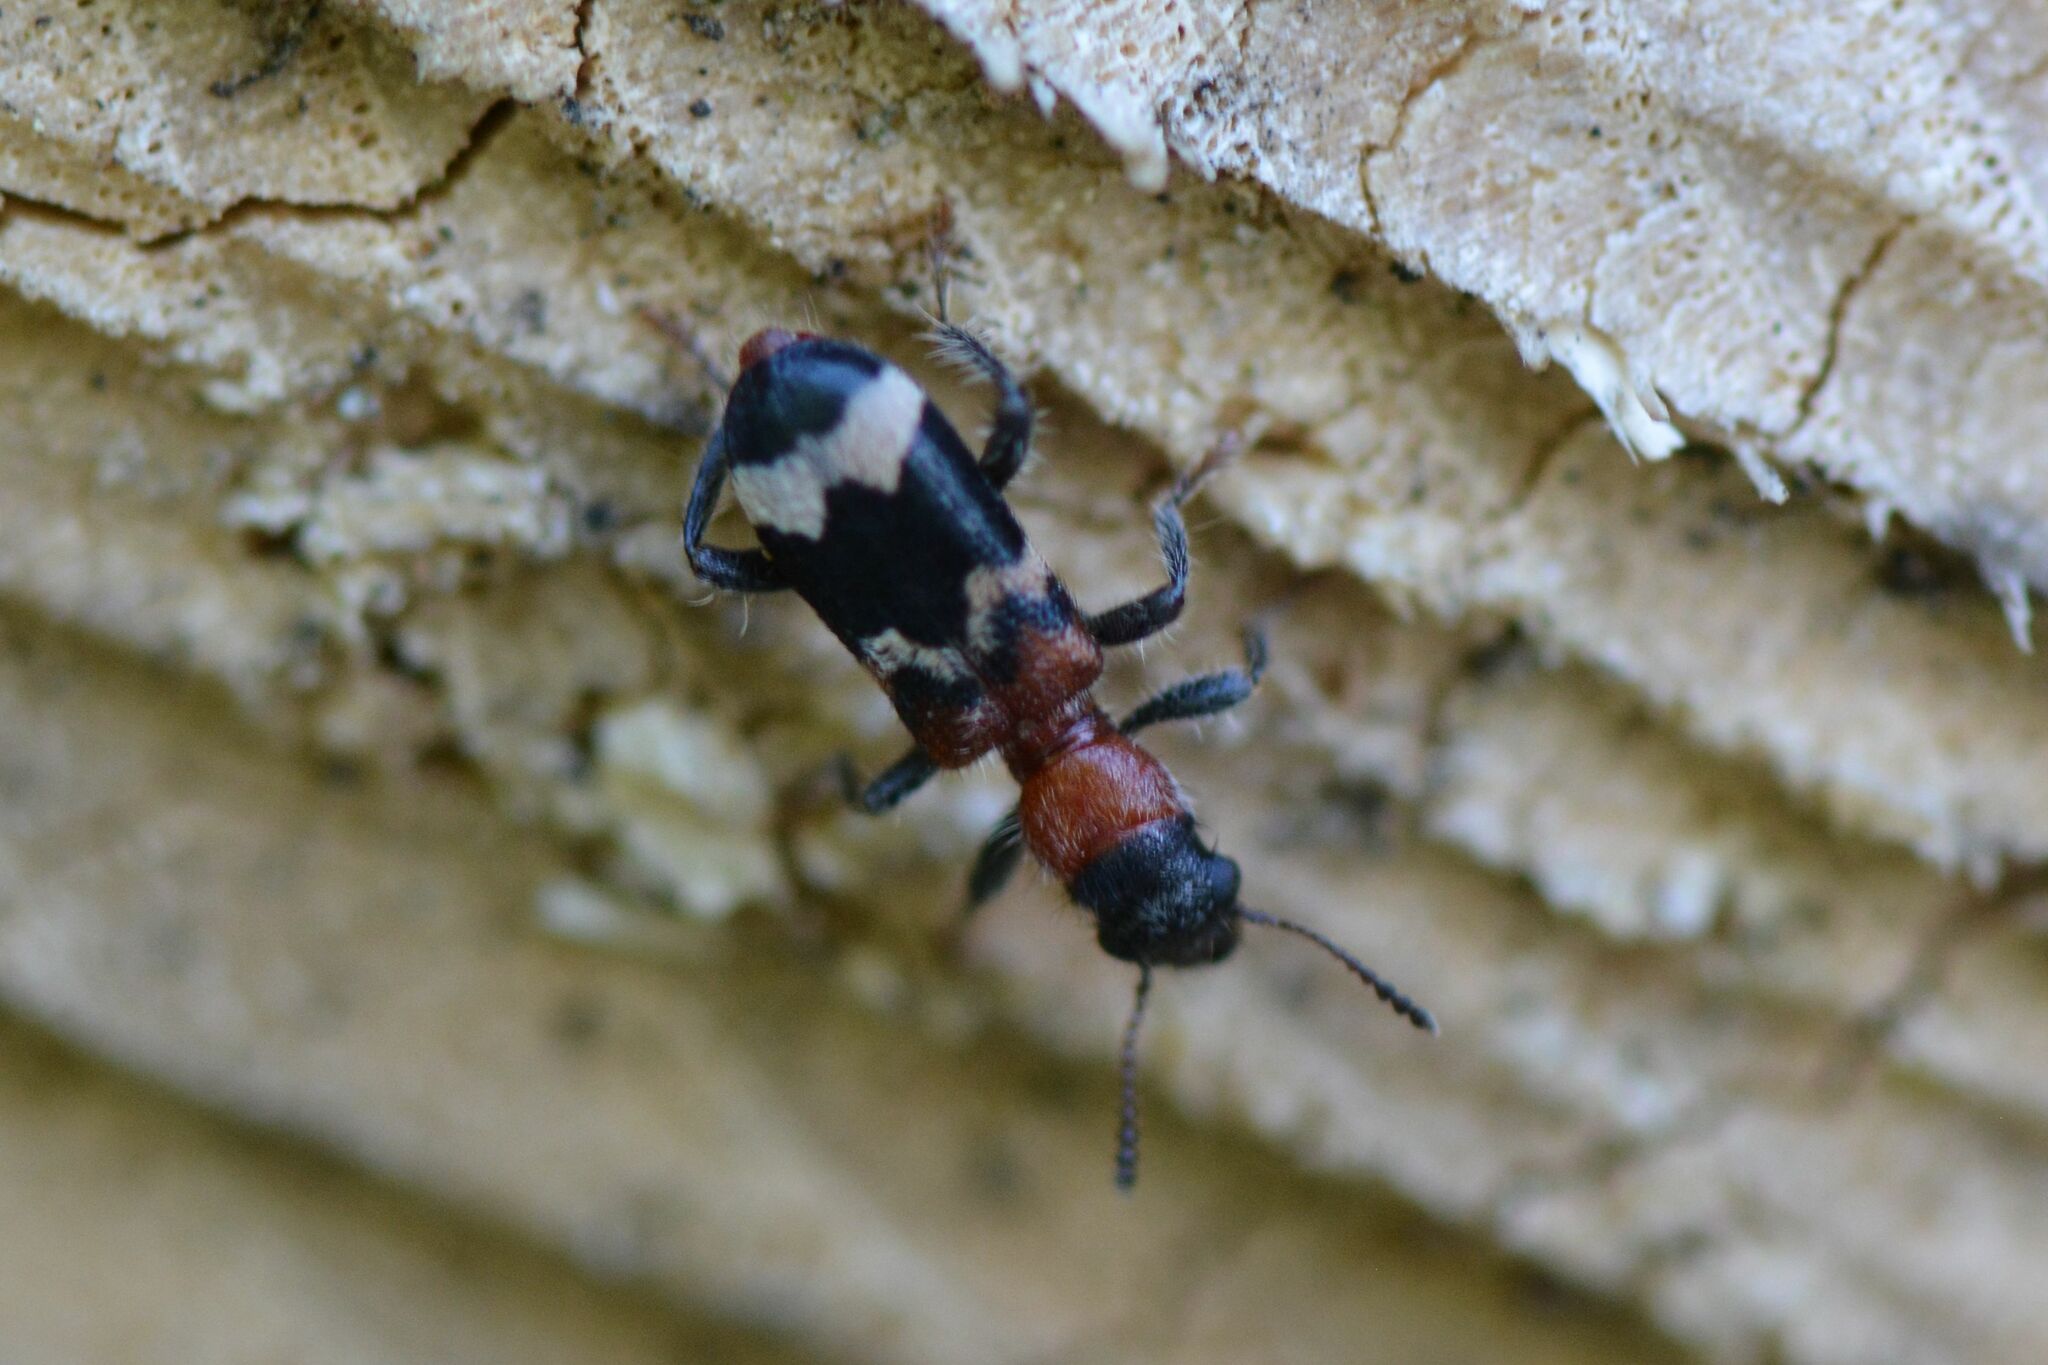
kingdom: Animalia
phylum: Arthropoda
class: Insecta
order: Coleoptera
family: Cleridae
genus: Thanasimus
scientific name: Thanasimus formicarius
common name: Ant beetle
